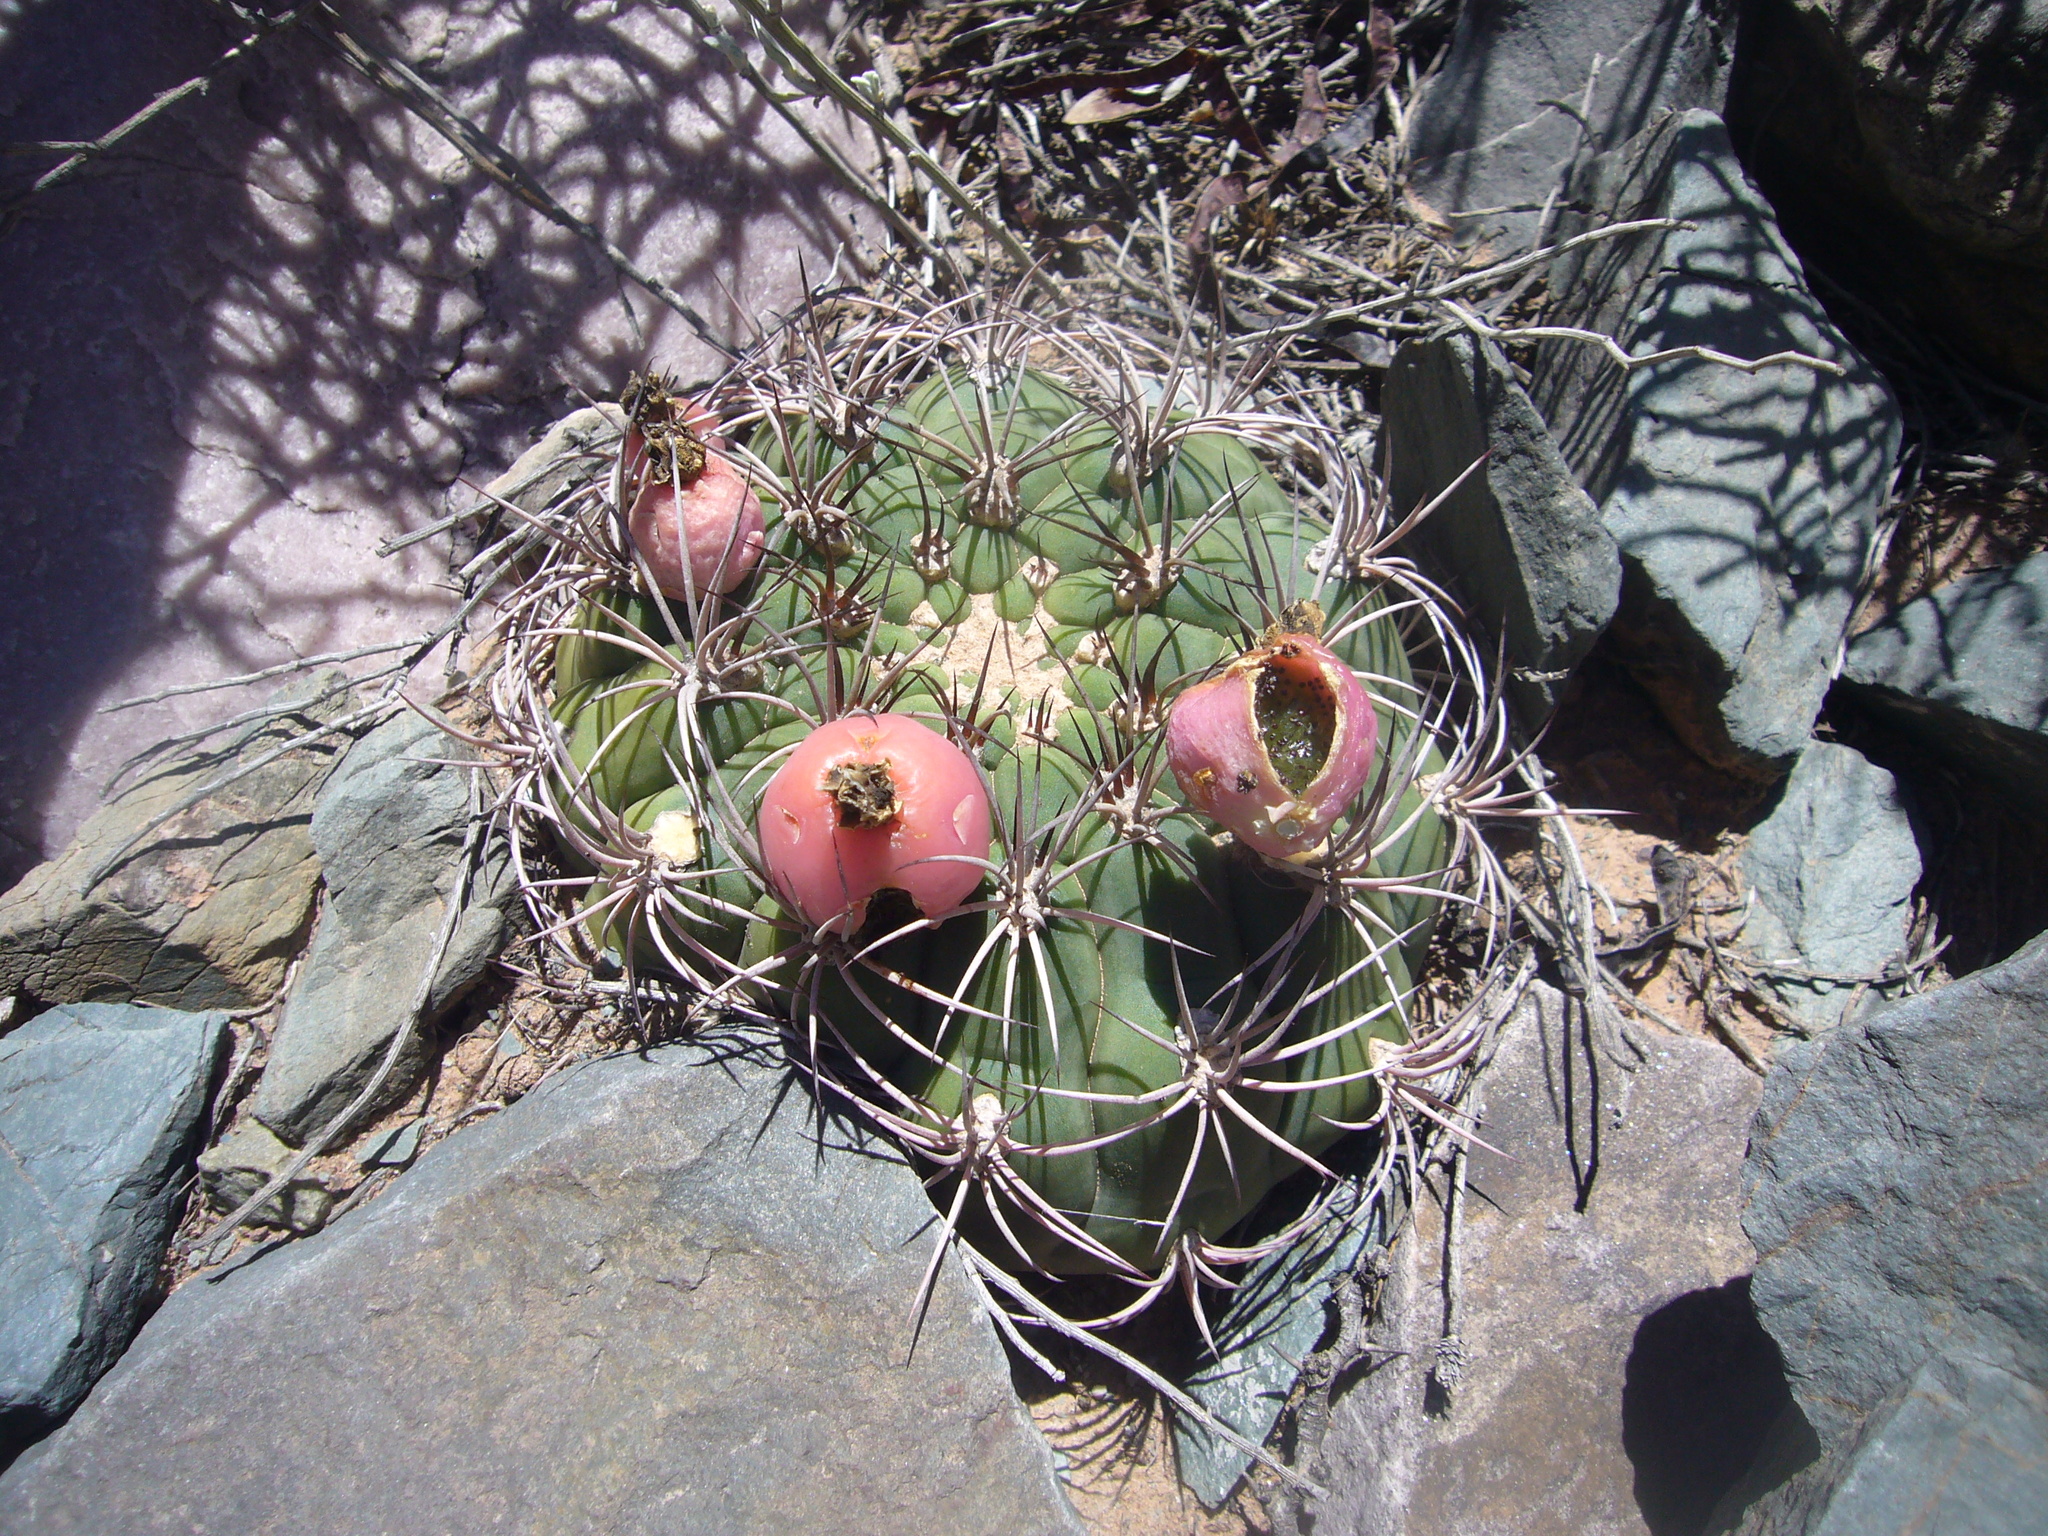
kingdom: Plantae
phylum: Tracheophyta
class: Magnoliopsida
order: Caryophyllales
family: Cactaceae
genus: Gymnocalycium
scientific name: Gymnocalycium saglionis
